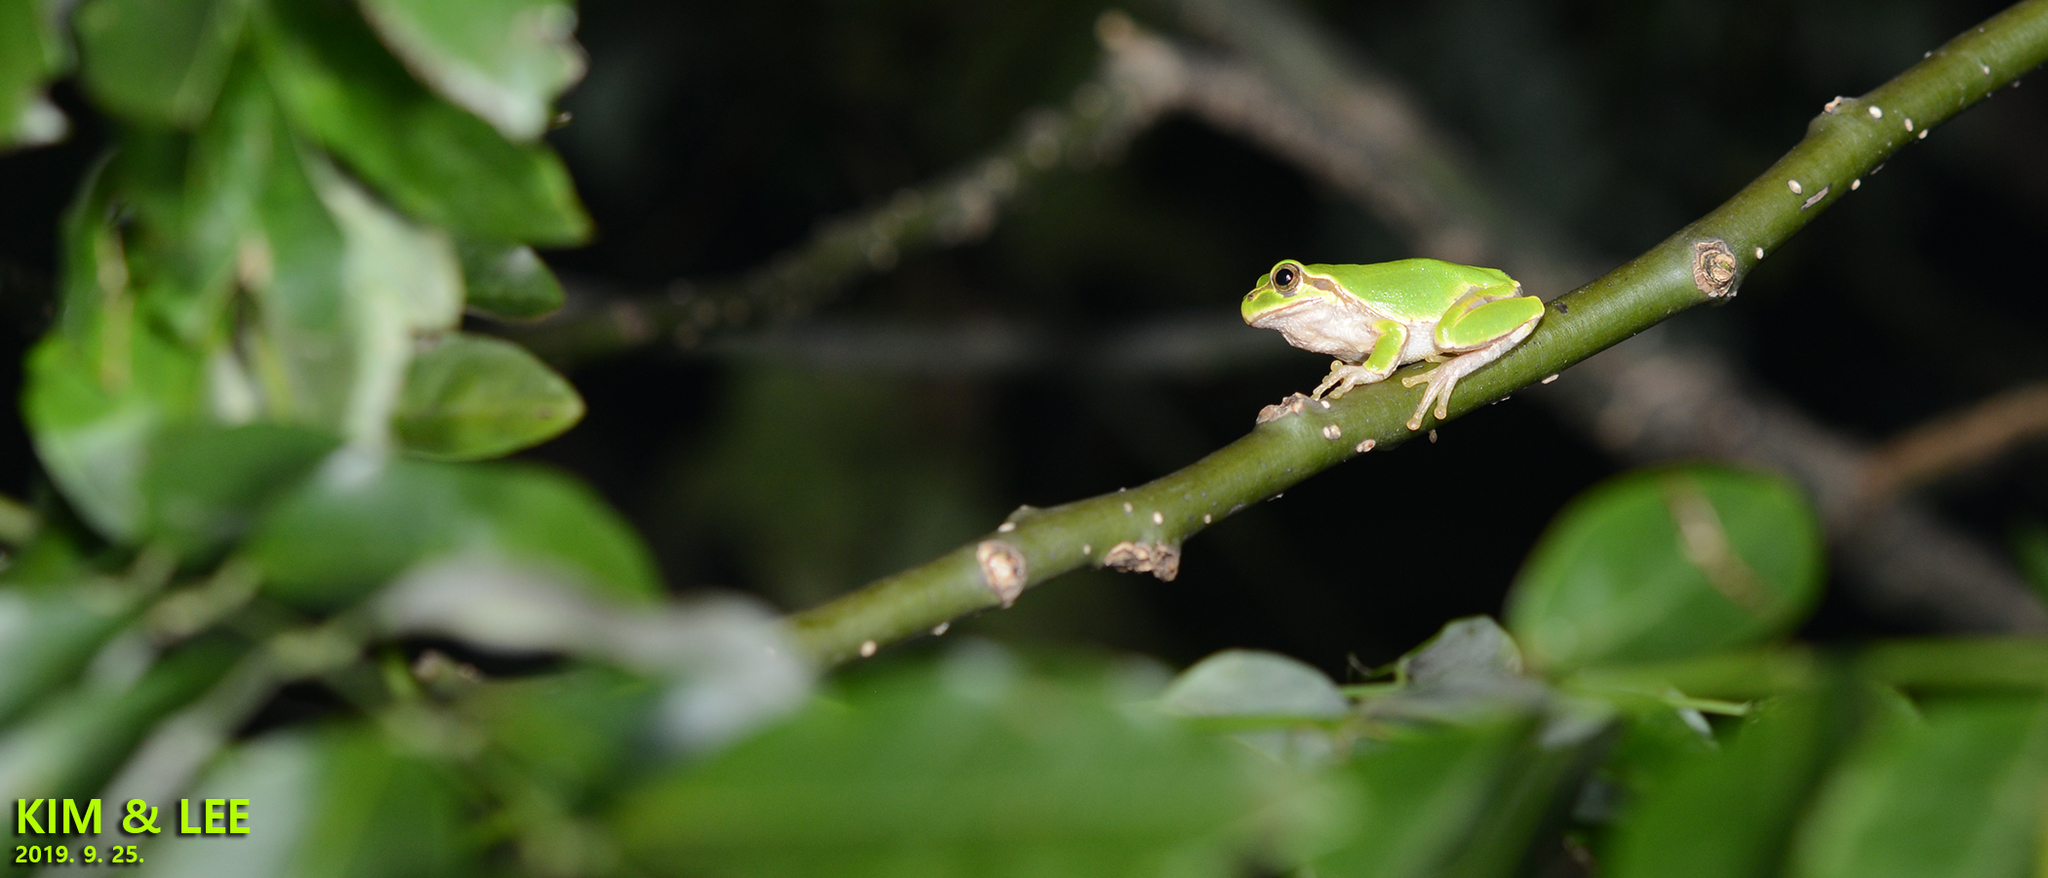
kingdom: Animalia
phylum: Chordata
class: Amphibia
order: Anura
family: Hylidae
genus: Dryophytes
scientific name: Dryophytes japonicus
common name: Japanese treefrog
